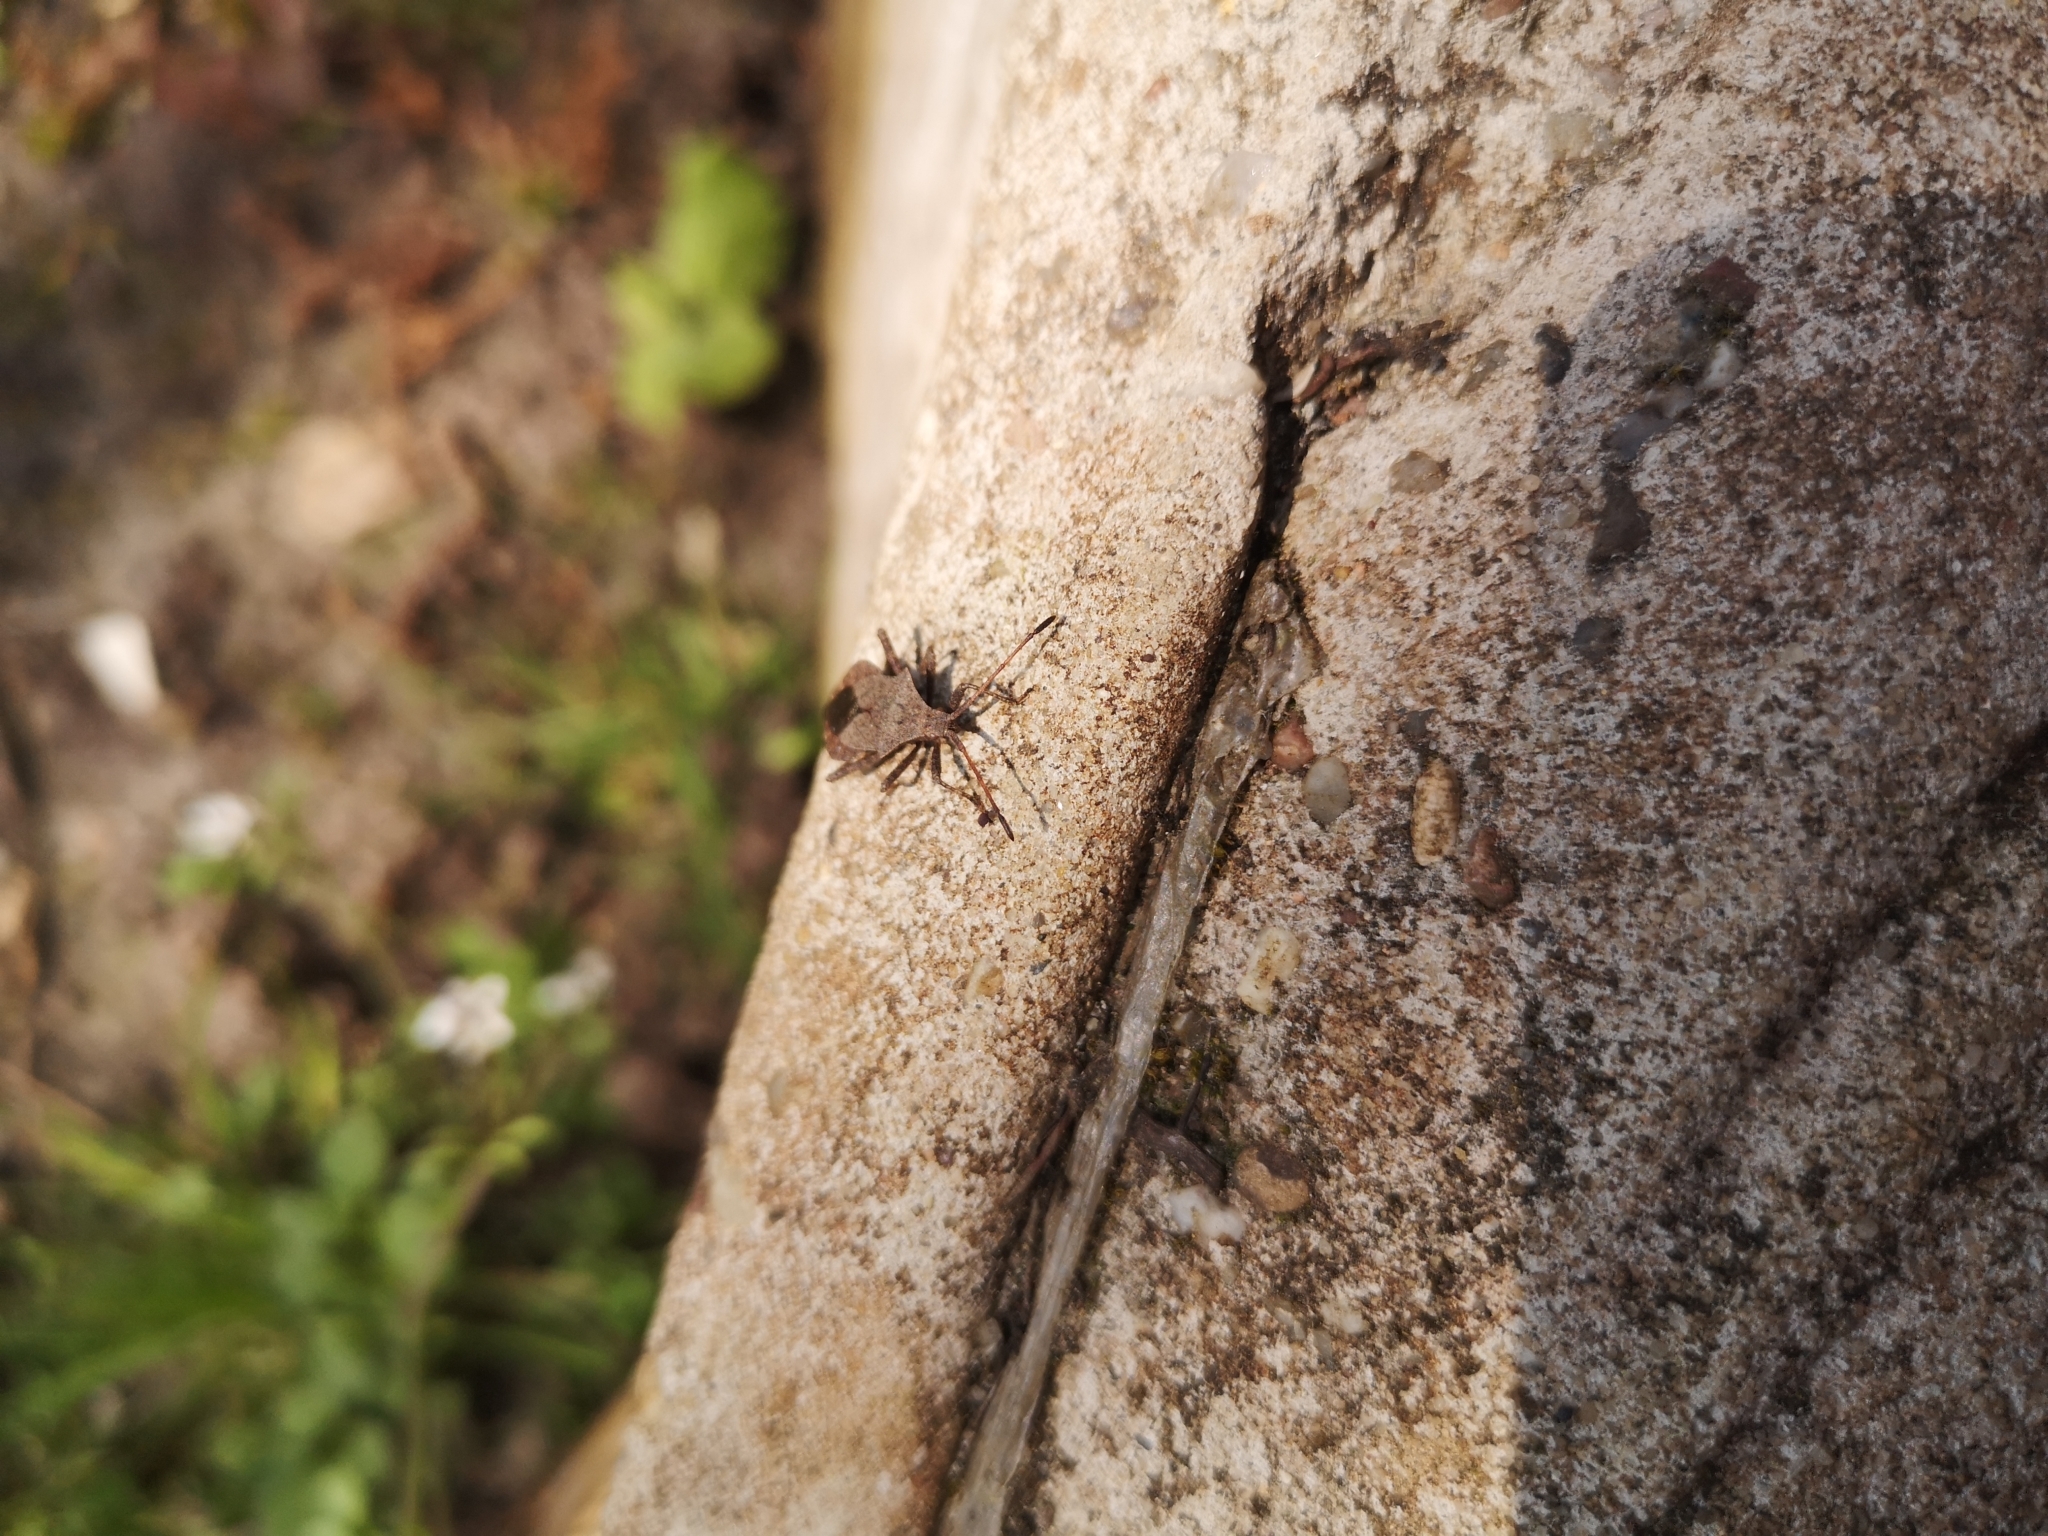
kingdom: Animalia
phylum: Arthropoda
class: Insecta
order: Hemiptera
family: Coreidae
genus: Coreus
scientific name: Coreus marginatus
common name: Dock bug
